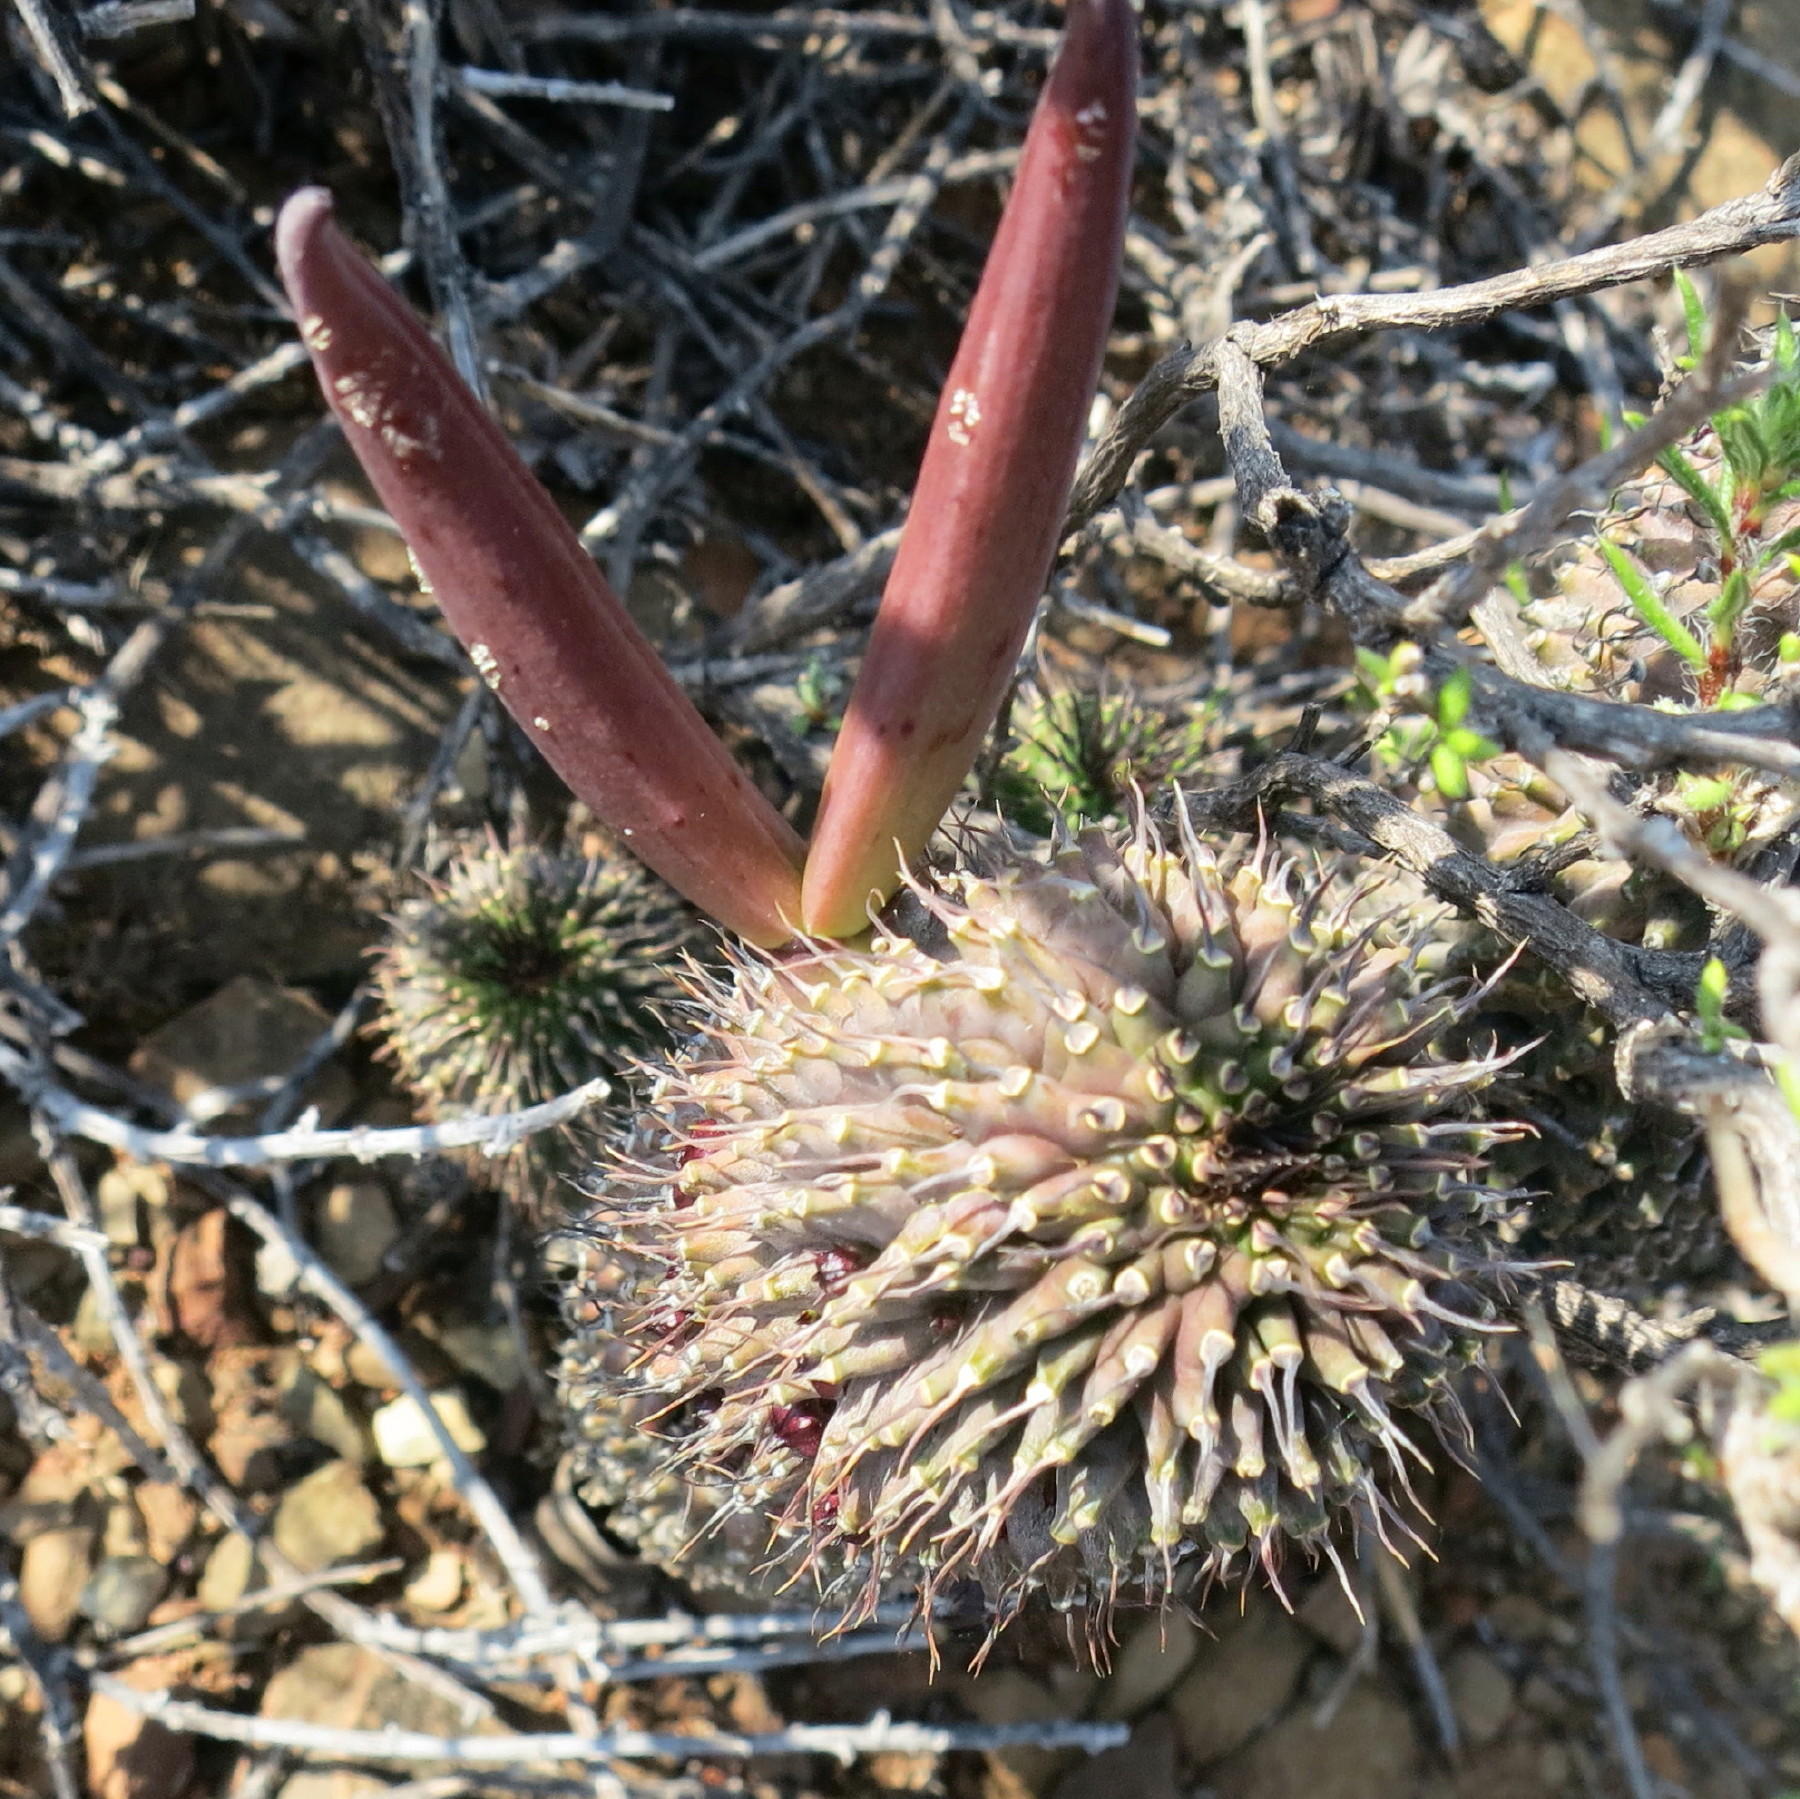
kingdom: Plantae
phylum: Tracheophyta
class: Magnoliopsida
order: Gentianales
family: Apocynaceae
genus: Ceropegia
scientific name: Ceropegia pilifera
